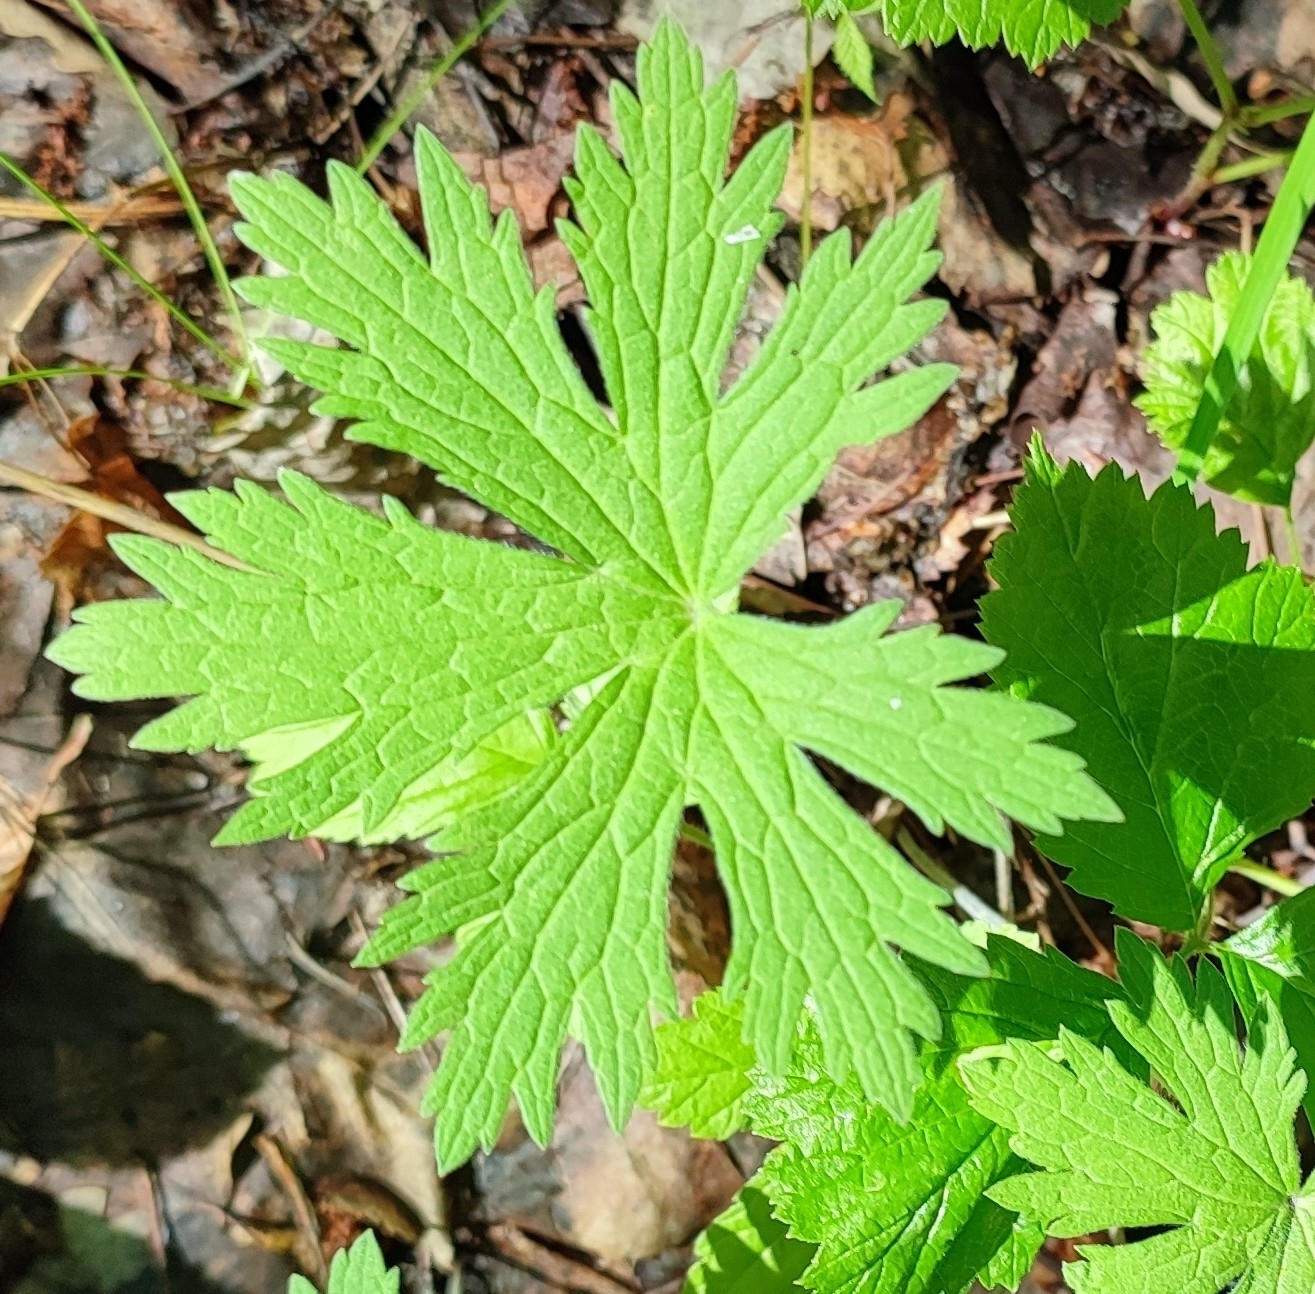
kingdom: Plantae
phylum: Tracheophyta
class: Magnoliopsida
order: Geraniales
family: Geraniaceae
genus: Geranium
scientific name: Geranium sylvaticum
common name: Wood crane's-bill
